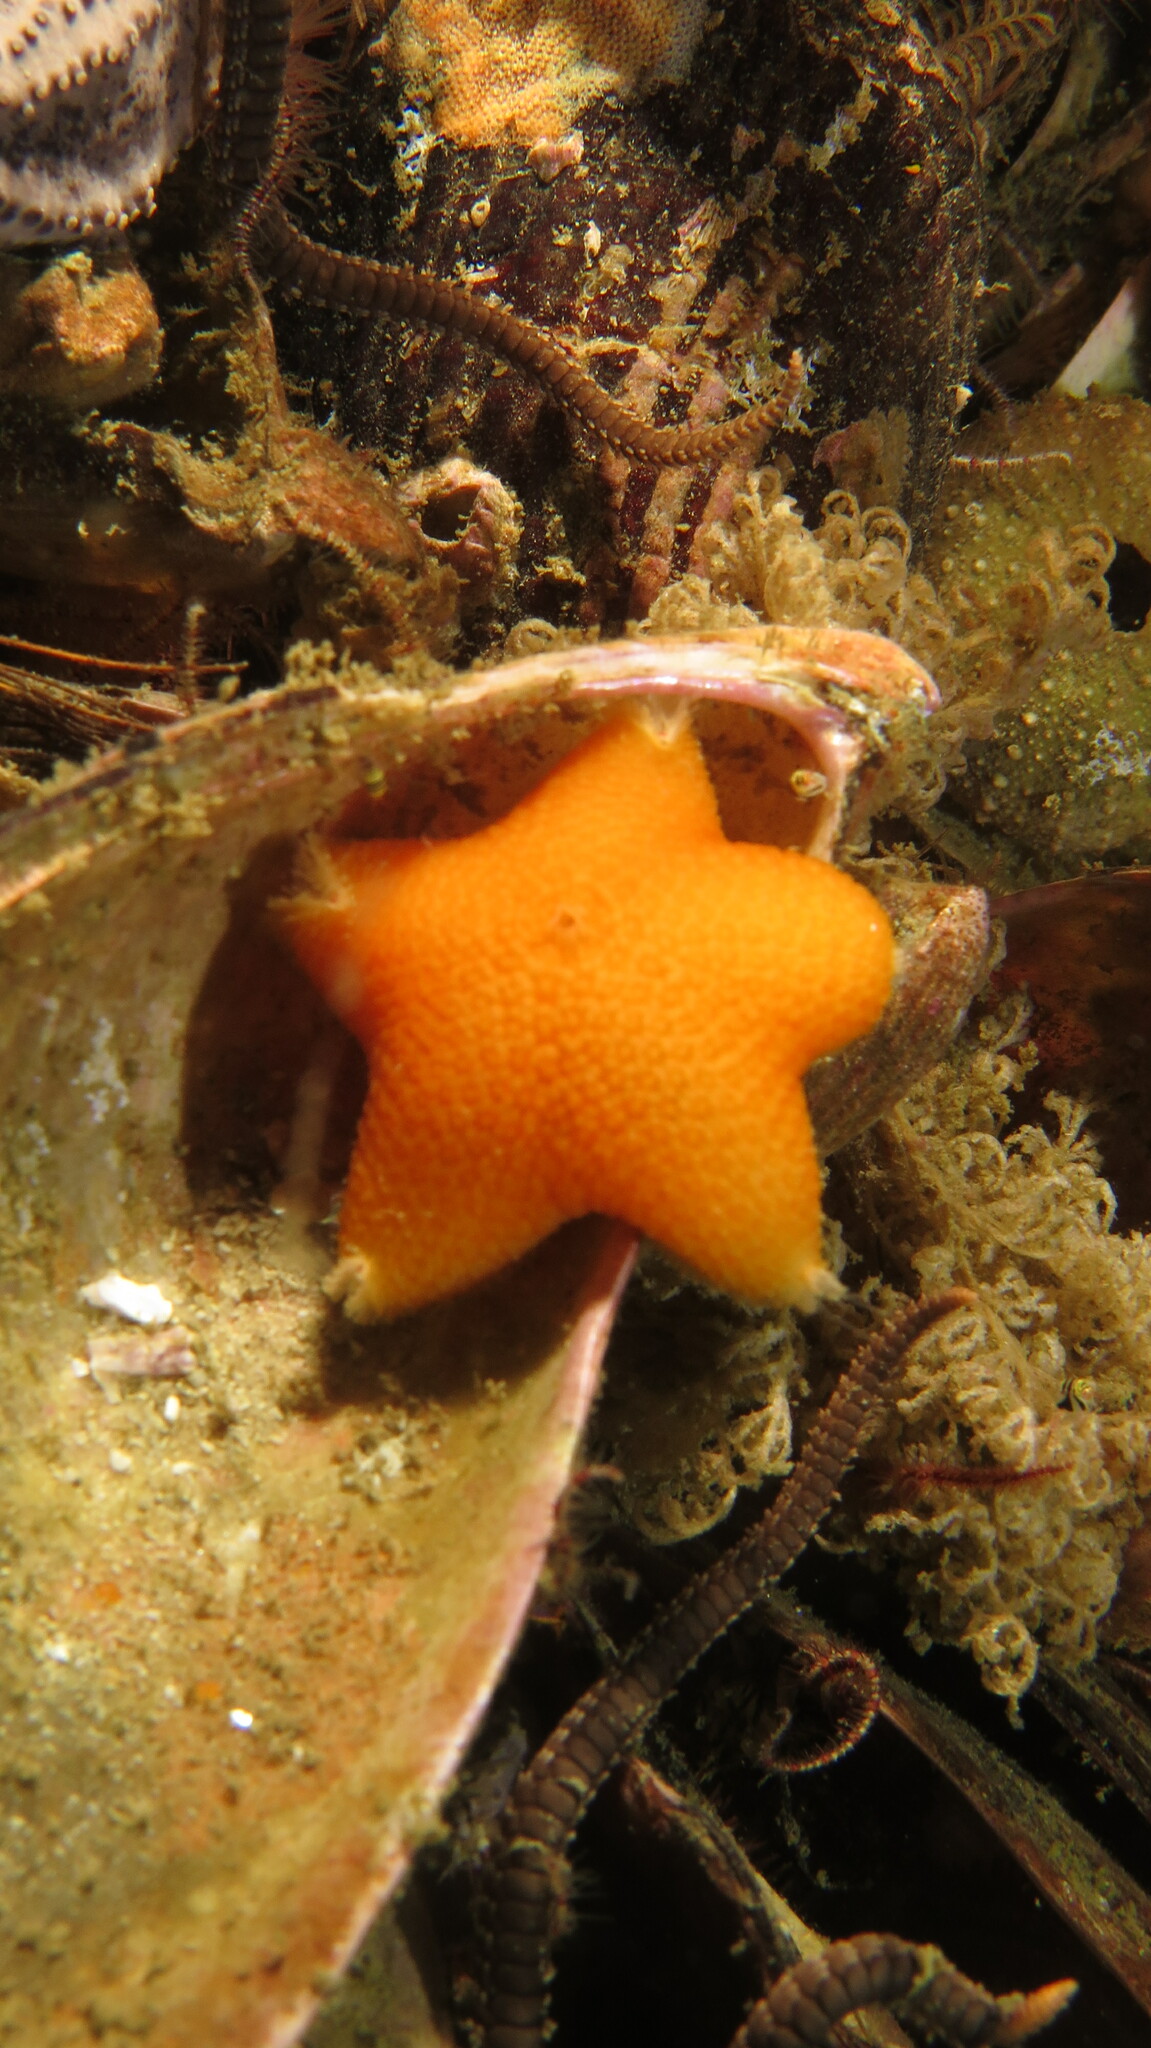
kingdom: Animalia
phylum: Echinodermata
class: Asteroidea
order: Velatida
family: Pterasteridae
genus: Pteraster
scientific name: Pteraster capensis
